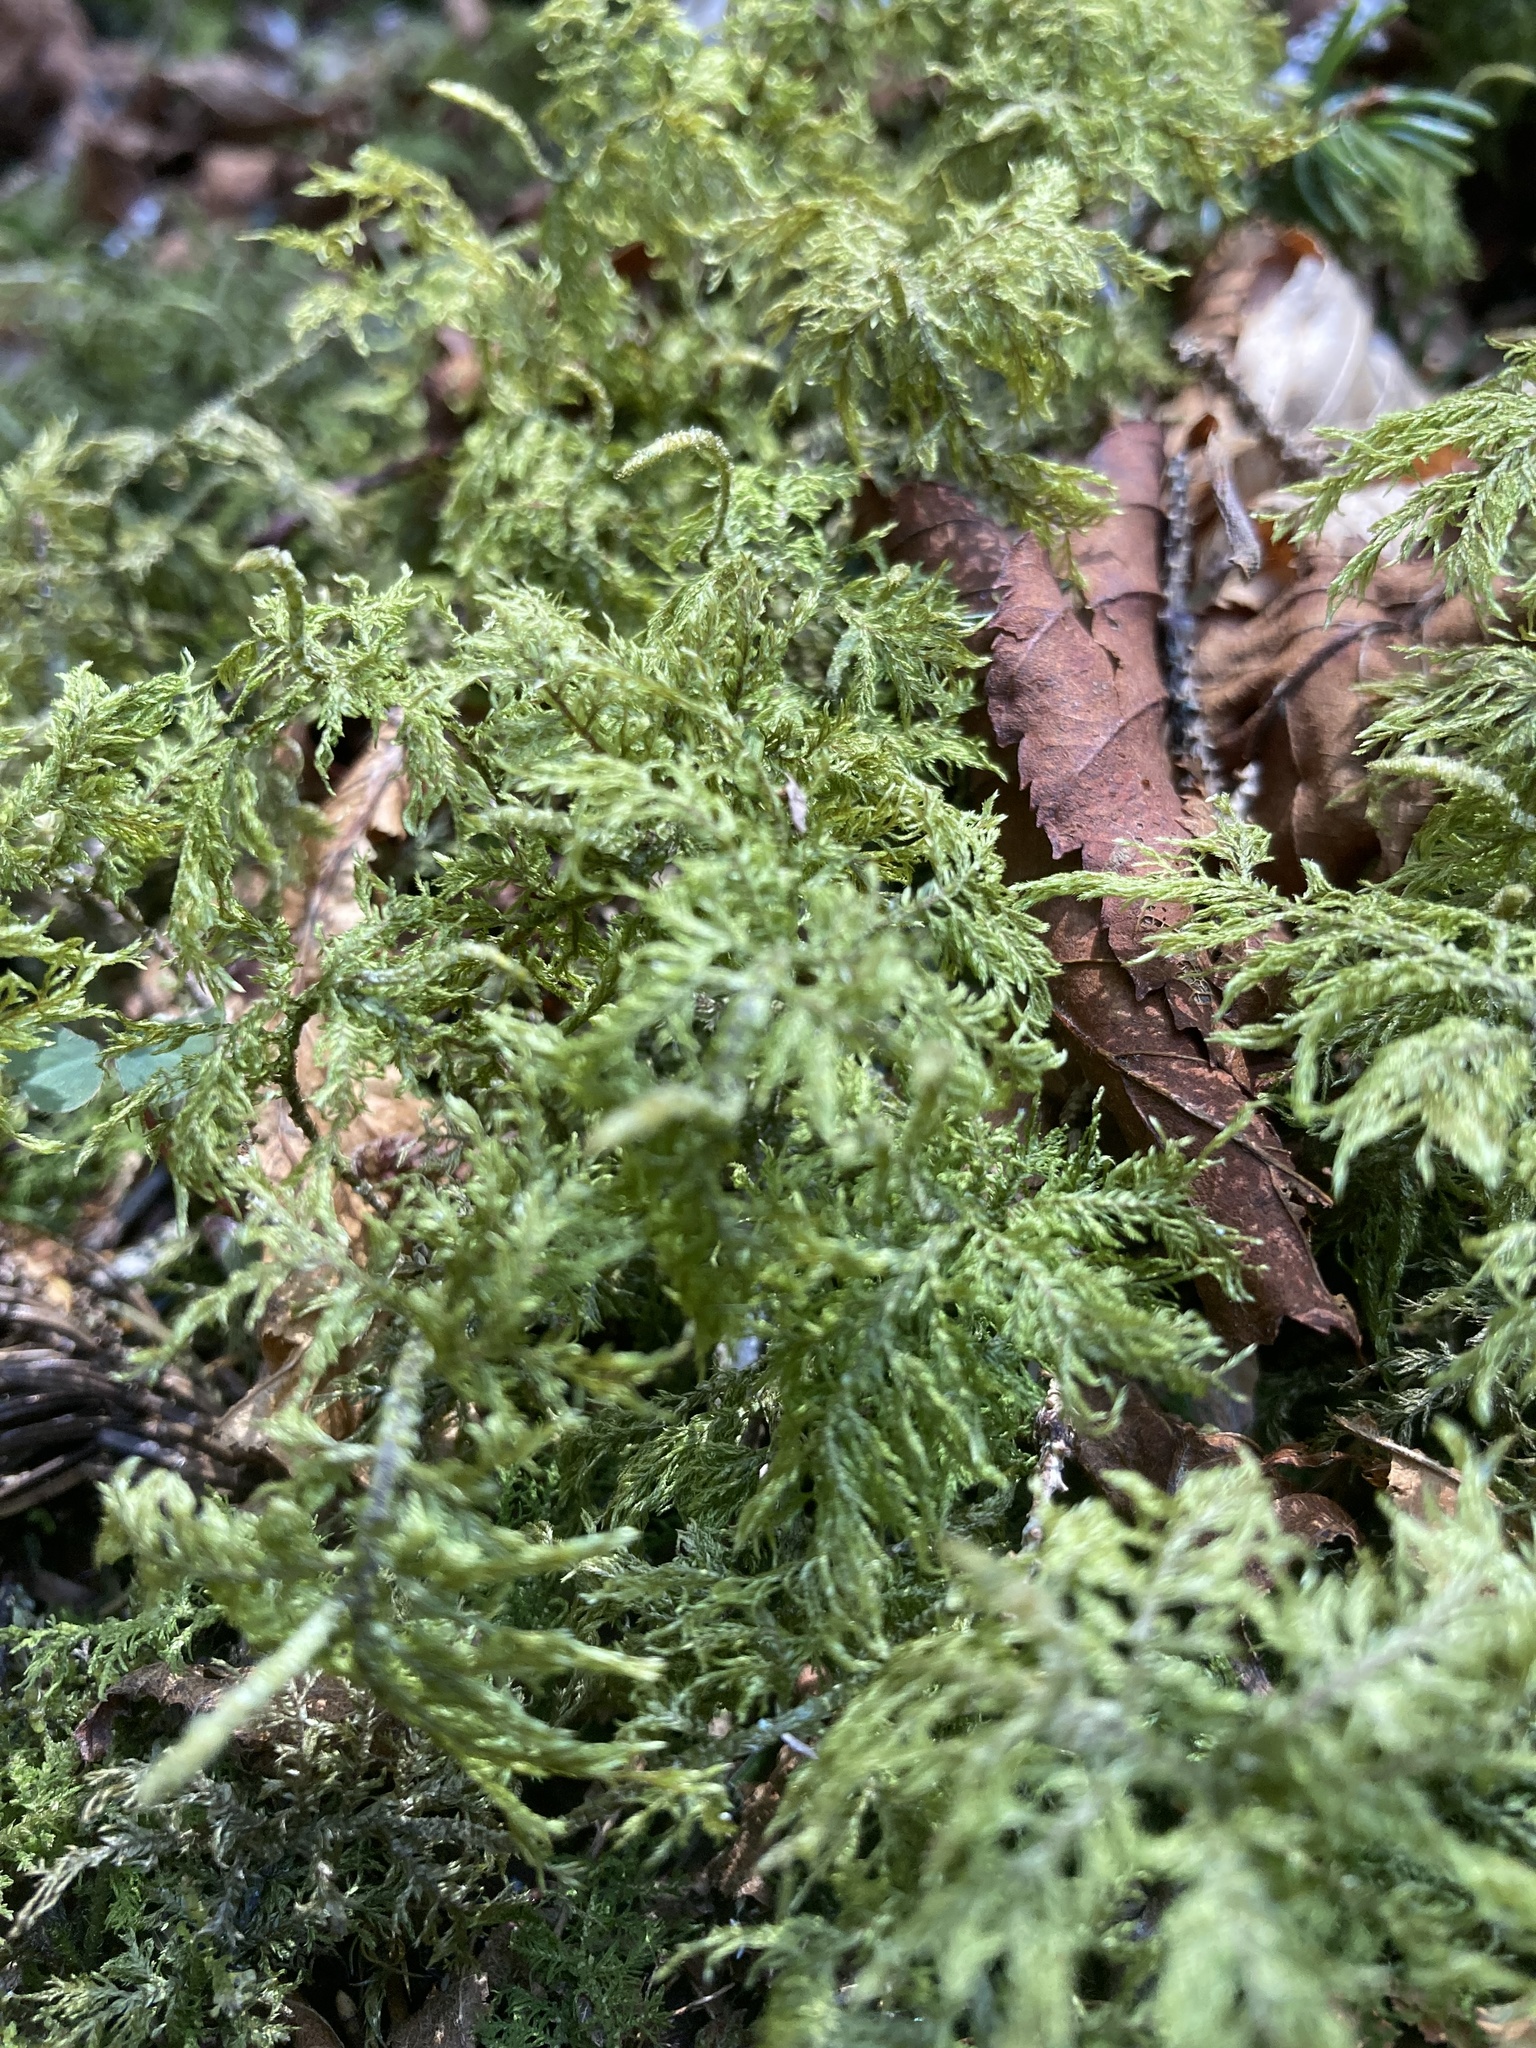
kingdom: Plantae
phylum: Bryophyta
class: Bryopsida
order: Hypnales
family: Hylocomiaceae
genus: Hylocomium
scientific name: Hylocomium splendens
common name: Stairstep moss
